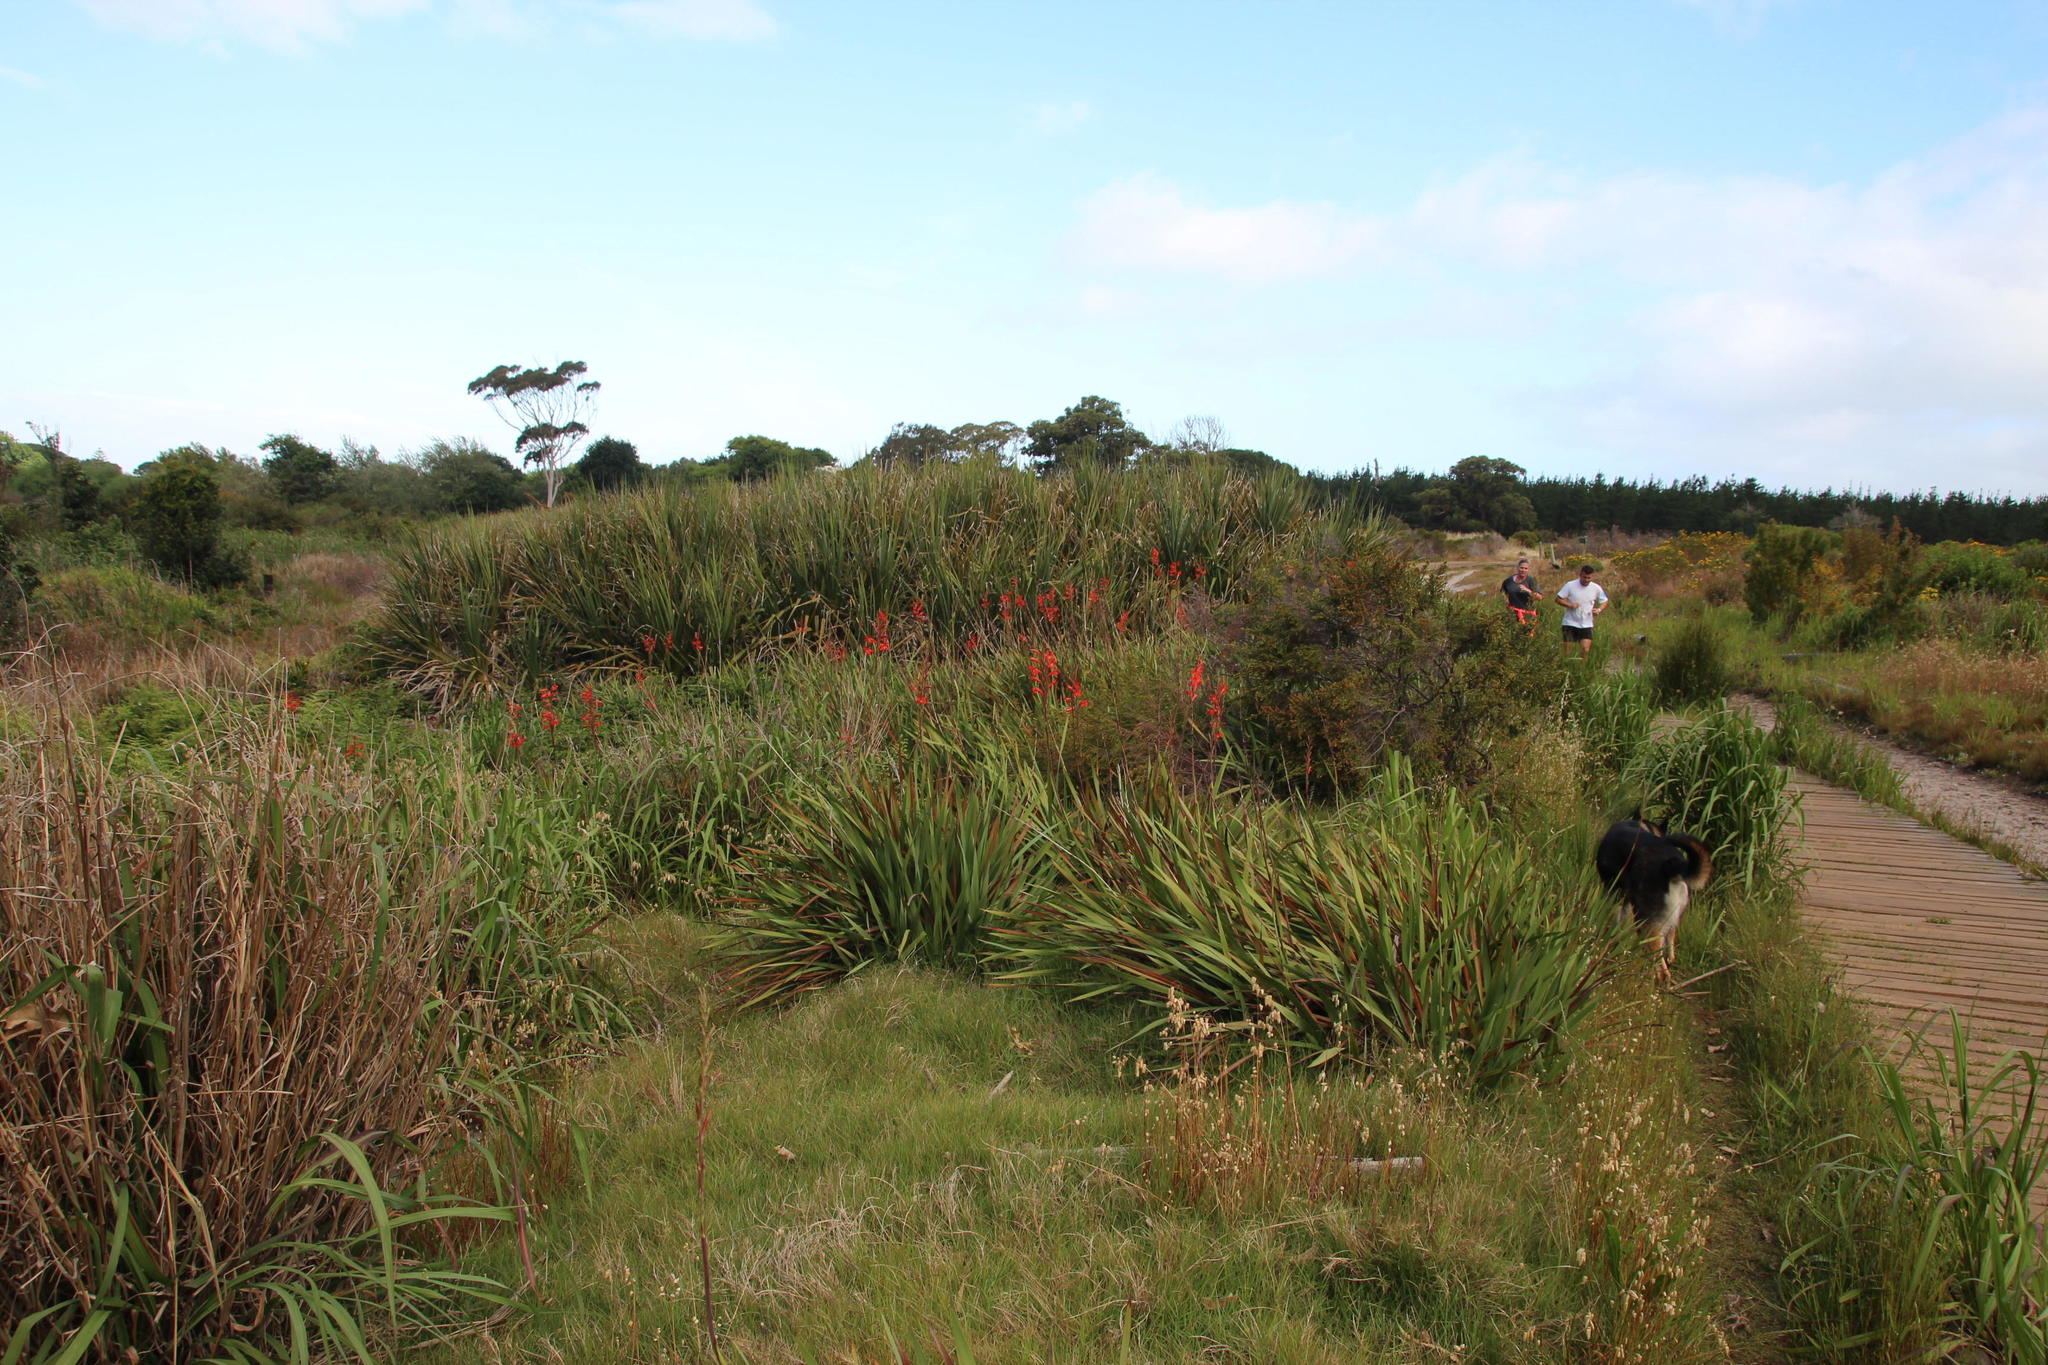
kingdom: Plantae
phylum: Tracheophyta
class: Liliopsida
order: Asparagales
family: Iridaceae
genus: Watsonia
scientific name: Watsonia angusta
